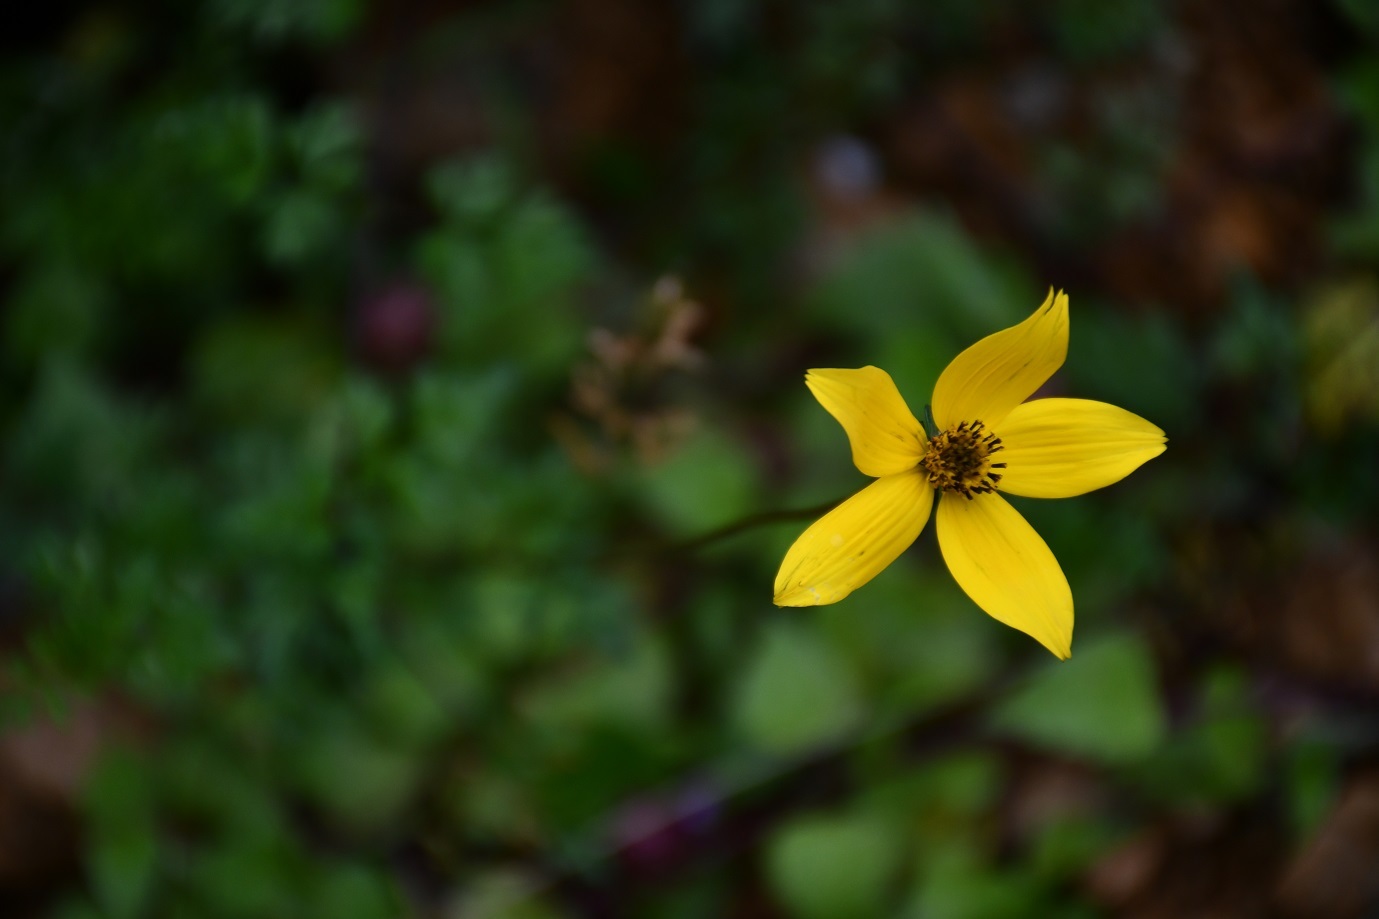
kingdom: Plantae
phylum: Tracheophyta
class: Magnoliopsida
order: Asterales
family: Asteraceae
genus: Bidens
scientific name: Bidens triplinervia
